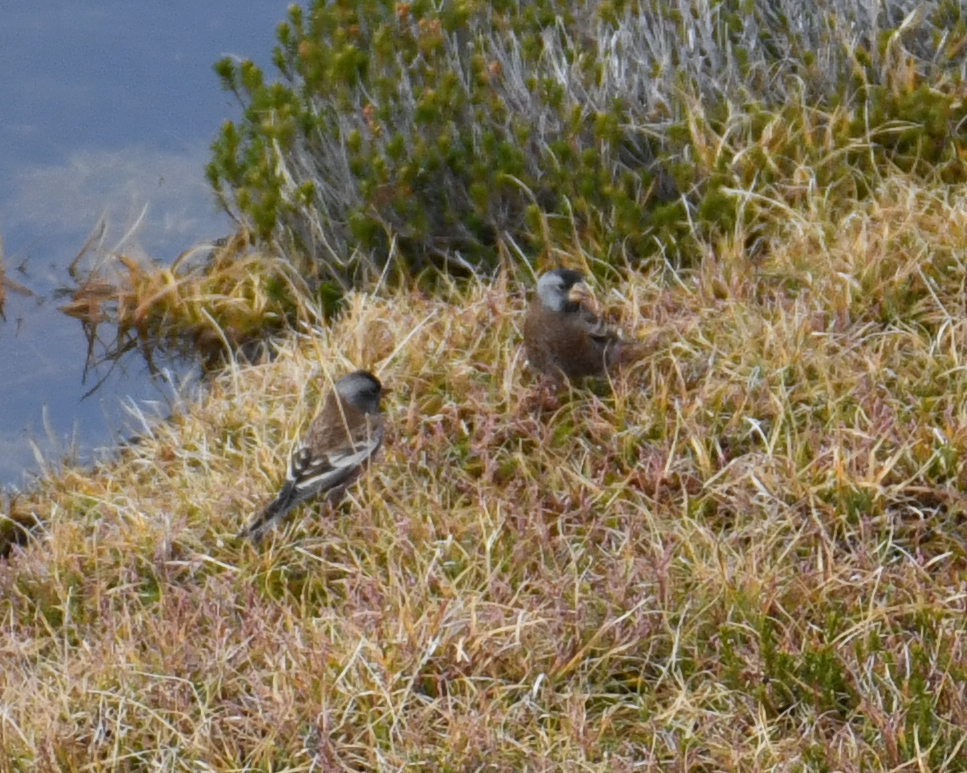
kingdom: Animalia
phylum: Chordata
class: Aves
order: Passeriformes
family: Fringillidae
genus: Leucosticte
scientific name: Leucosticte tephrocotis
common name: Gray-crowned rosy-finch
